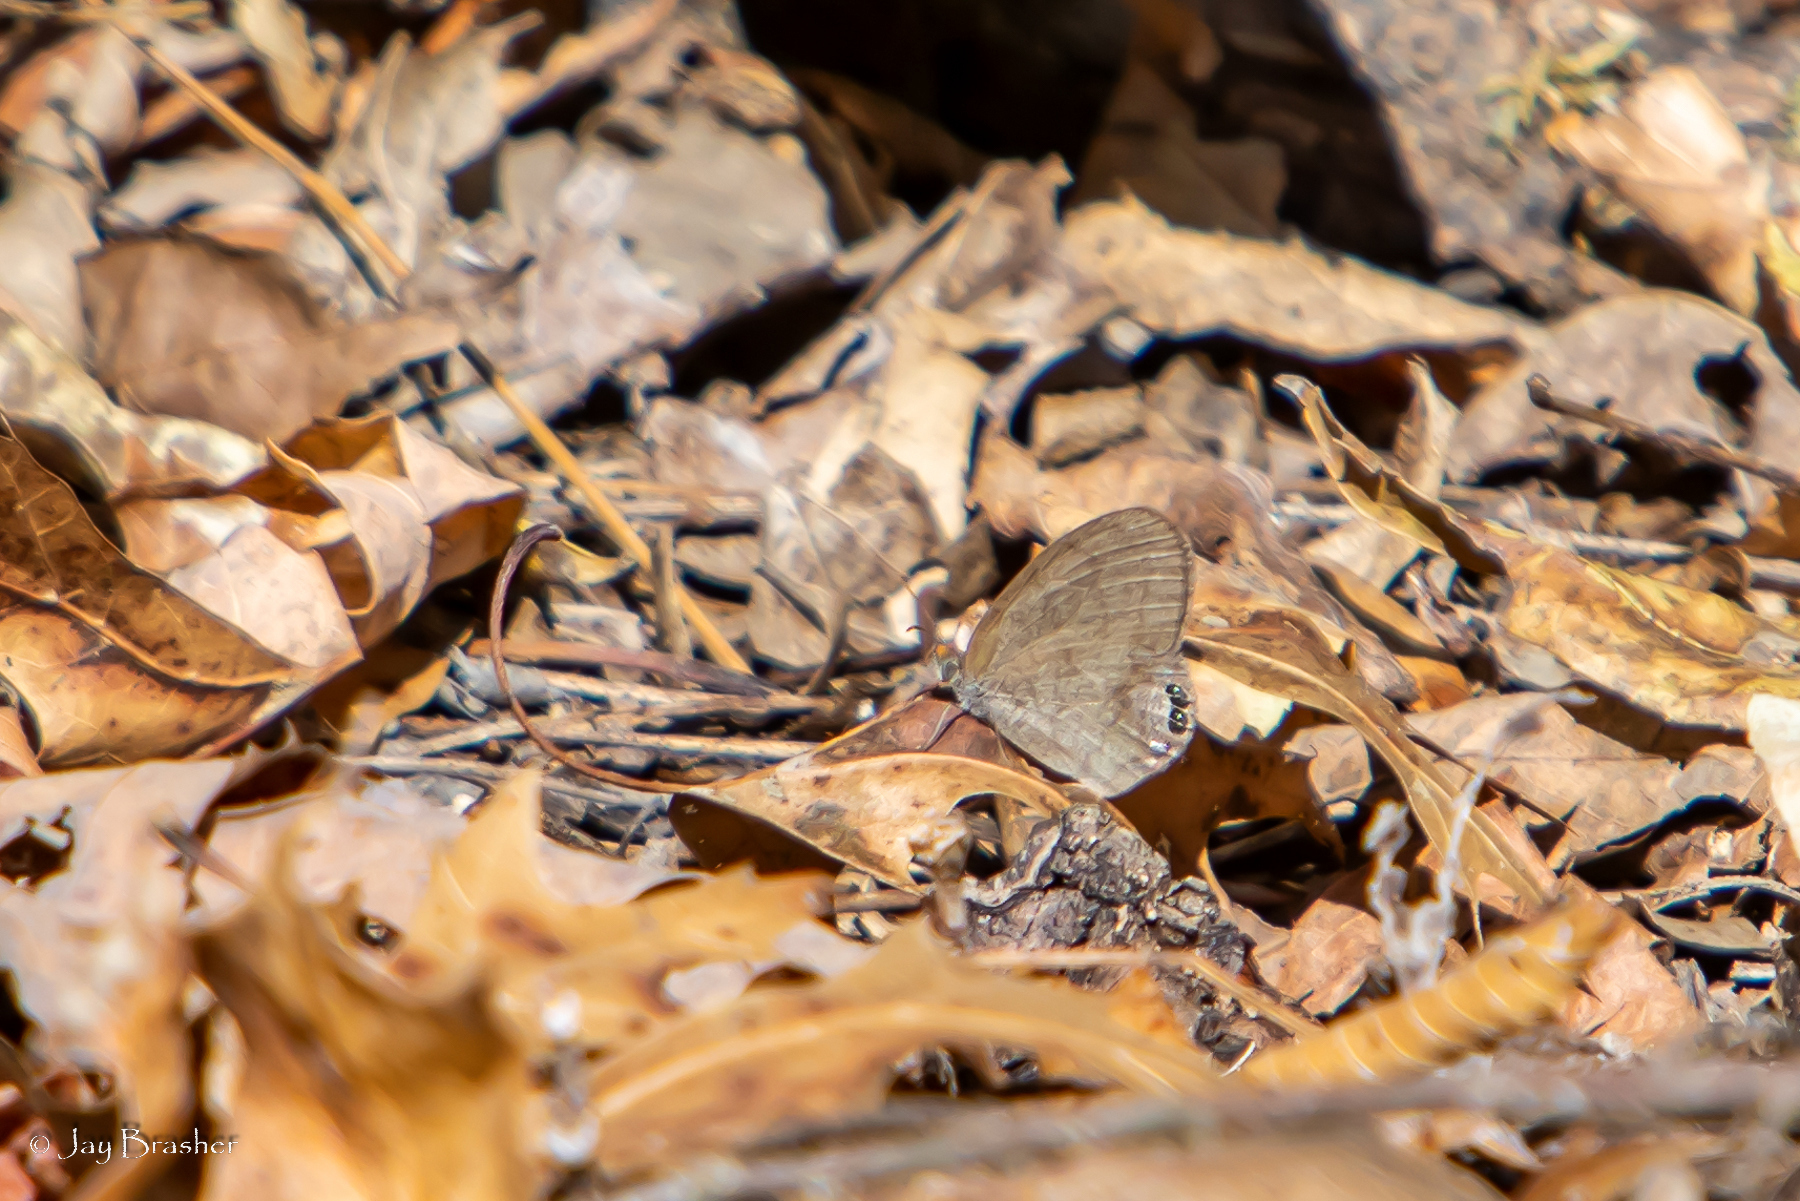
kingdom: Animalia
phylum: Arthropoda
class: Insecta
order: Lepidoptera
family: Nymphalidae
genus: Euptychia
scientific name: Euptychia cornelius
